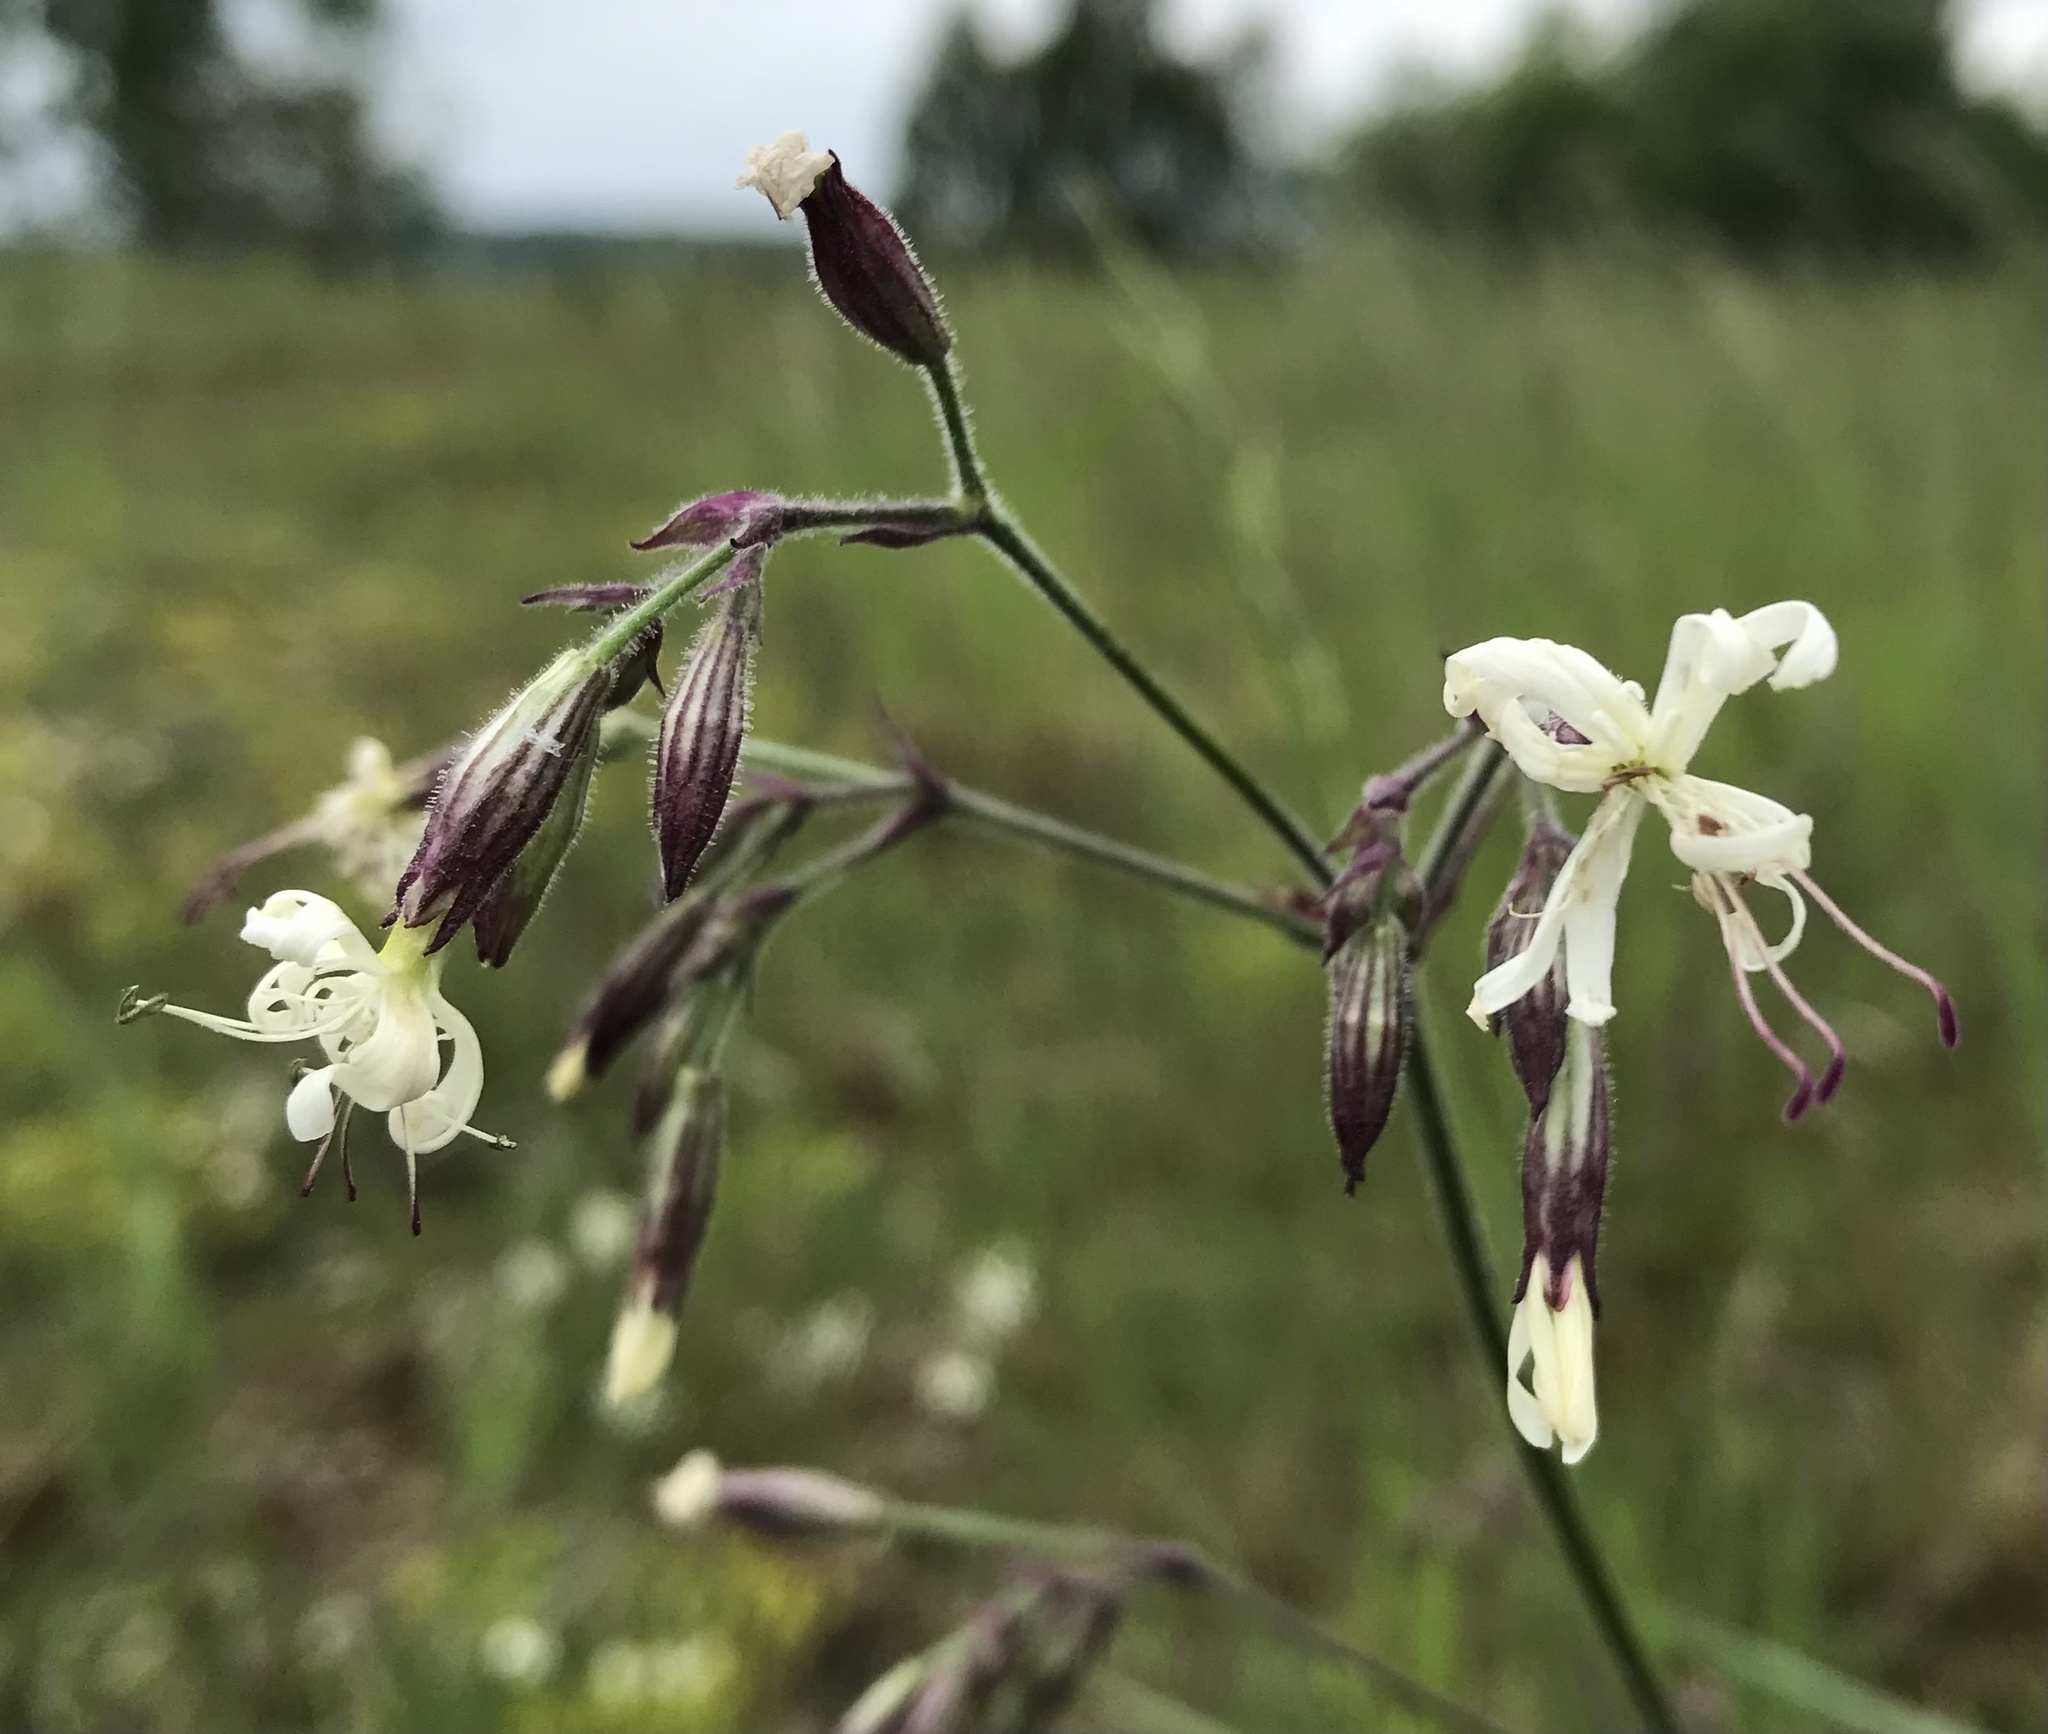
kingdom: Plantae
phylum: Tracheophyta
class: Magnoliopsida
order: Caryophyllales
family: Caryophyllaceae
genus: Silene
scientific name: Silene nutans
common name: Nottingham catchfly
